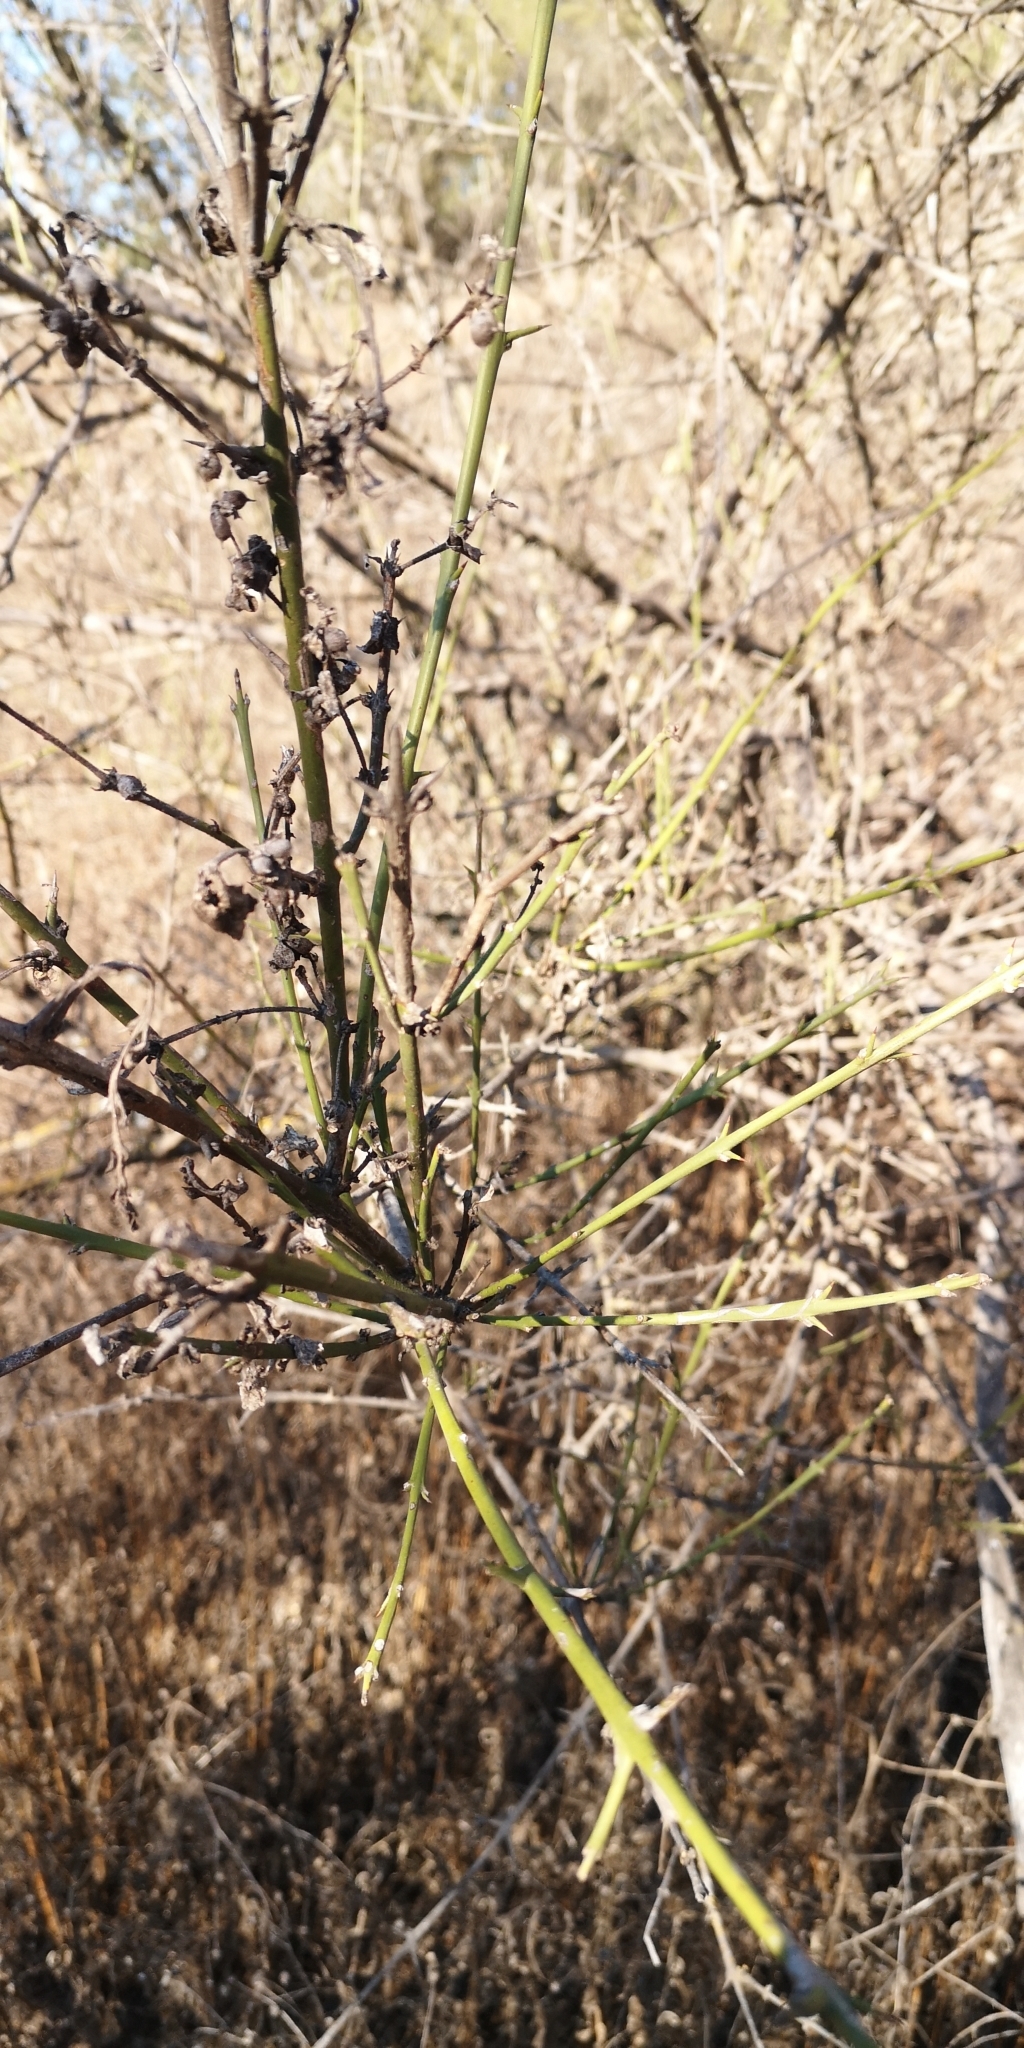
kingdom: Plantae
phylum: Tracheophyta
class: Magnoliopsida
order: Rosales
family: Rhamnaceae
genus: Retanilla
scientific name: Retanilla trinervia
